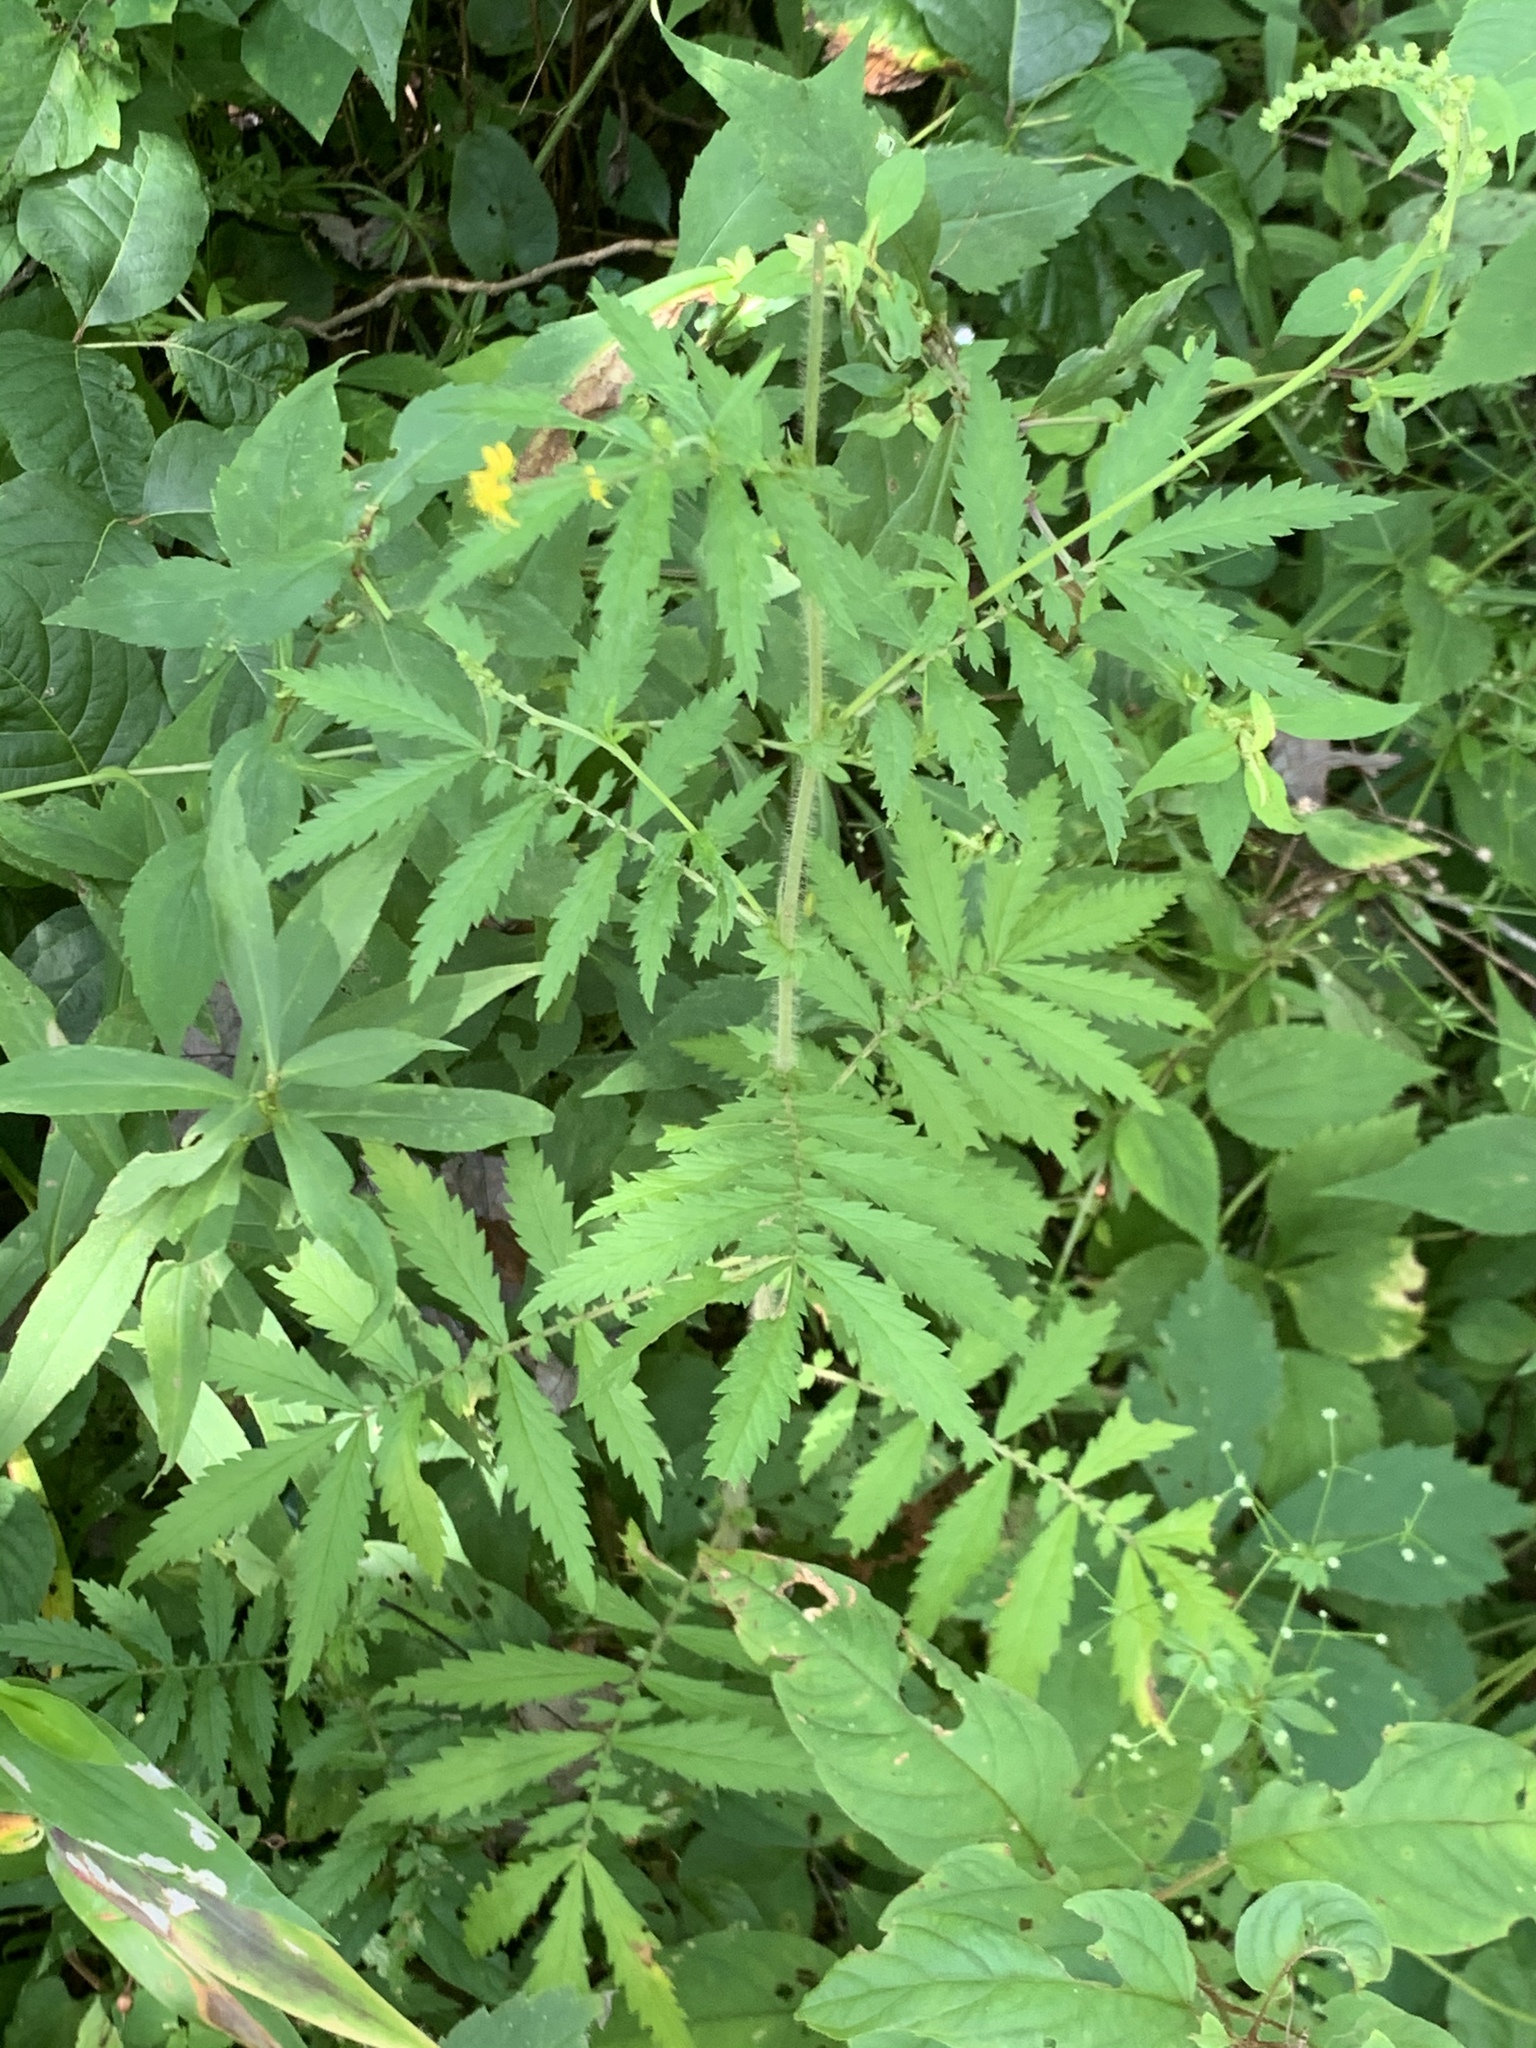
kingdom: Plantae
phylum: Tracheophyta
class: Magnoliopsida
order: Rosales
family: Rosaceae
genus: Agrimonia
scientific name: Agrimonia parviflora
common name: Harvest-lice
